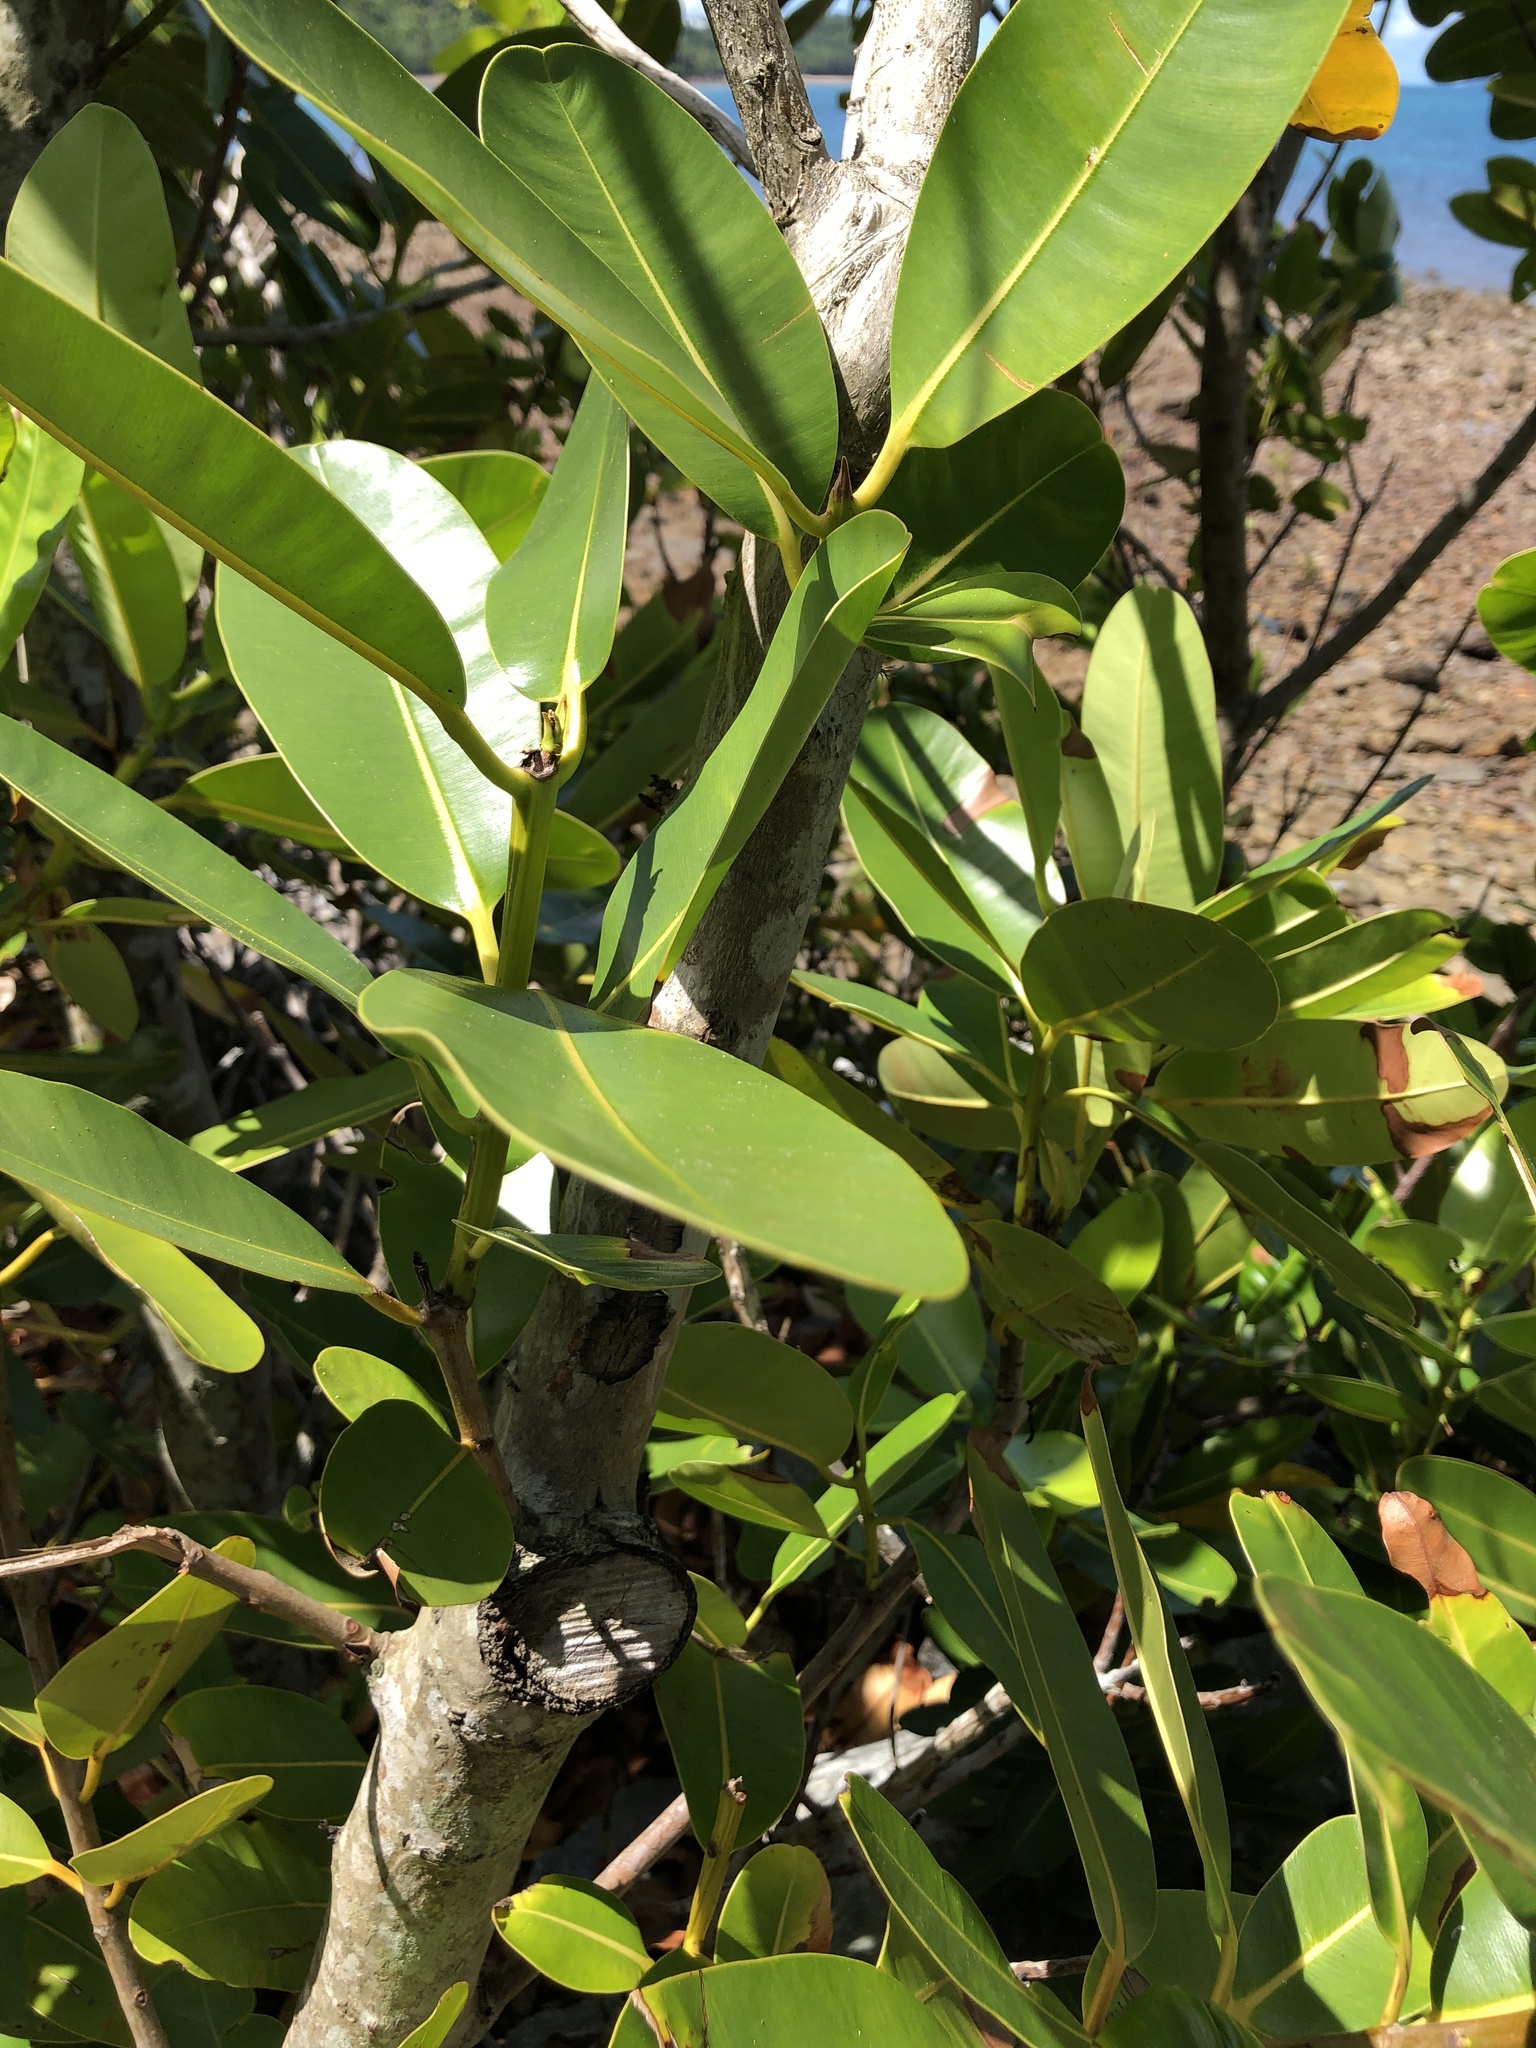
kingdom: Plantae
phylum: Tracheophyta
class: Magnoliopsida
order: Malpighiales
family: Calophyllaceae
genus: Calophyllum
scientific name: Calophyllum inophyllum
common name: Alexandrian laurel
